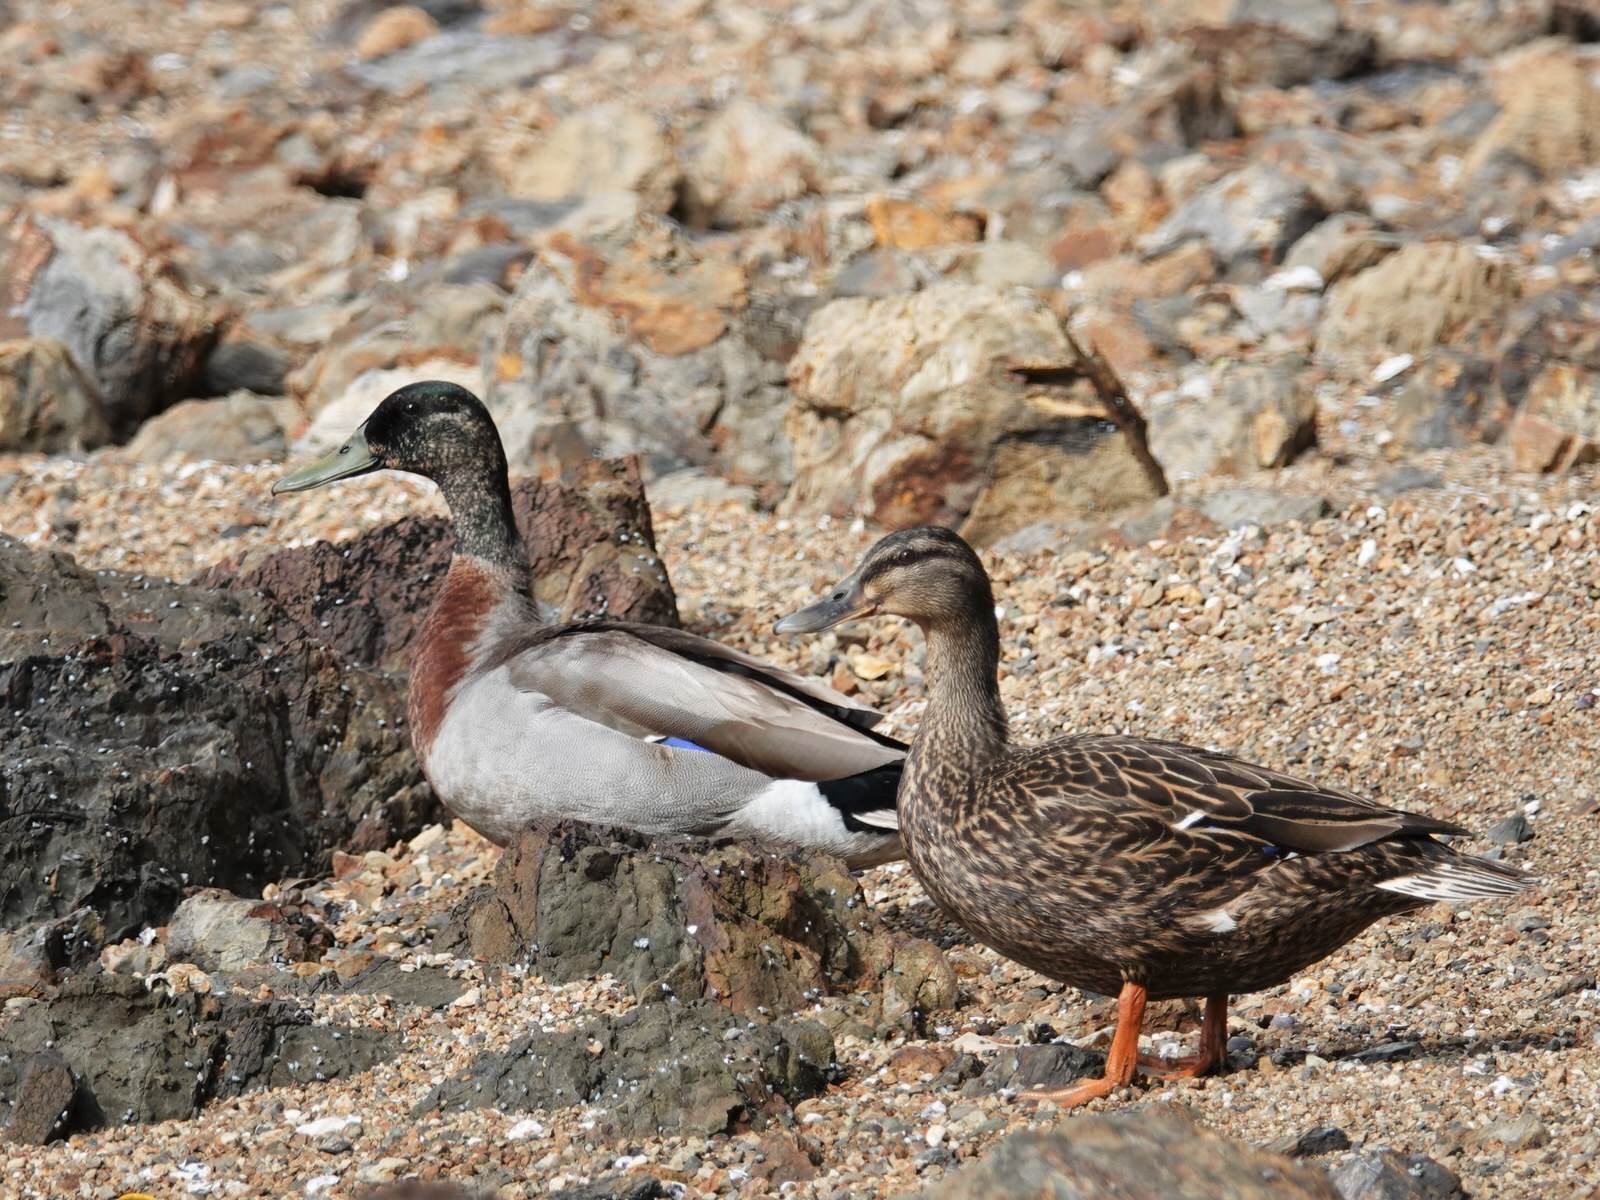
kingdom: Animalia
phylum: Chordata
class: Aves
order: Anseriformes
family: Anatidae
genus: Anas
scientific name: Anas
